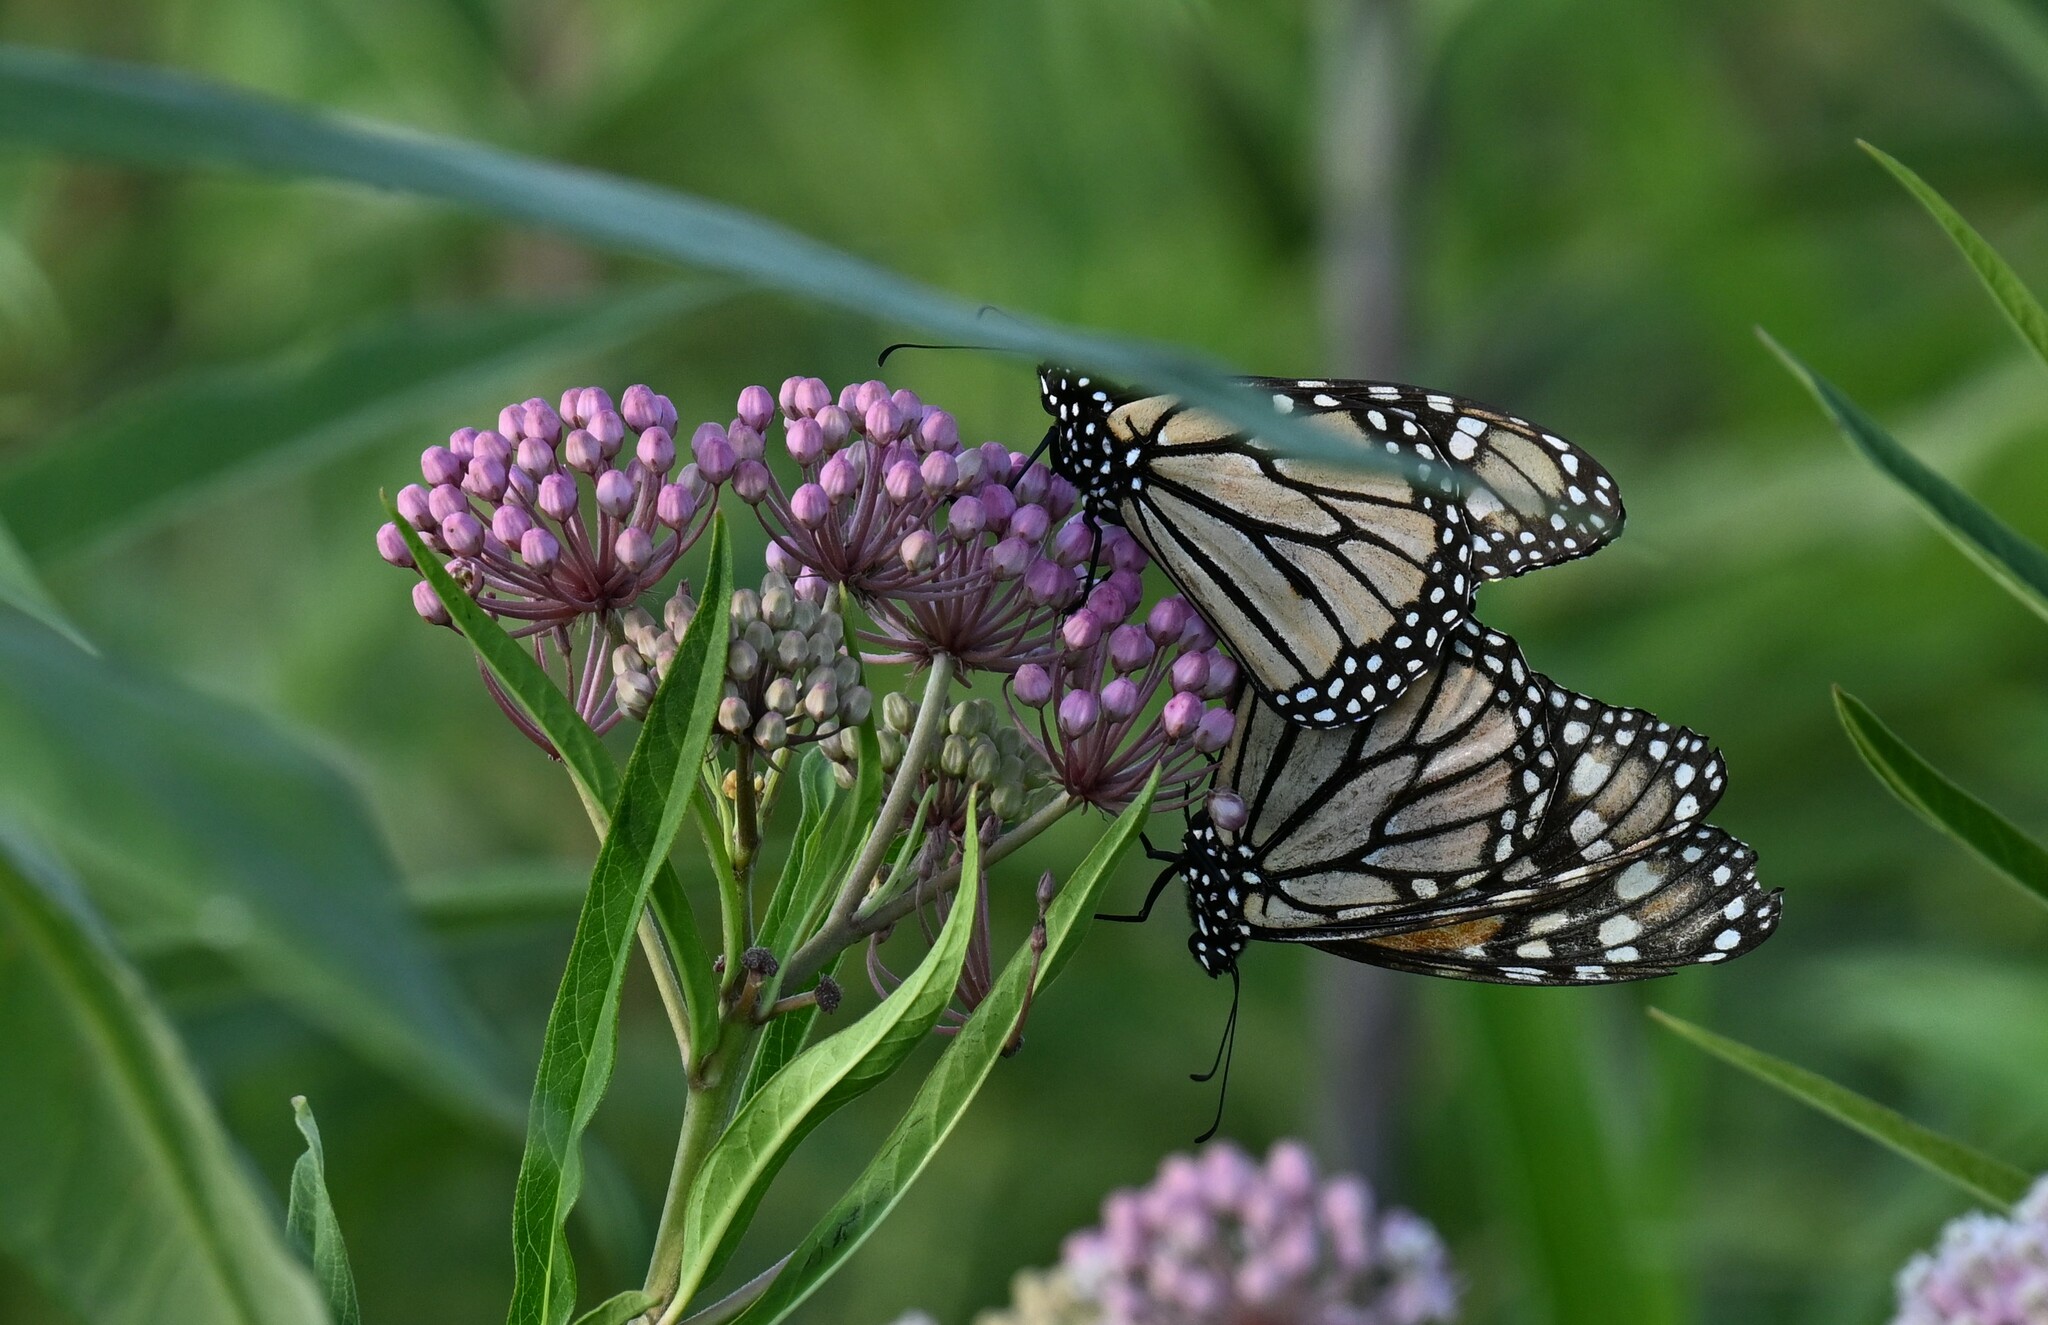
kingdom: Animalia
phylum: Arthropoda
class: Insecta
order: Lepidoptera
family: Nymphalidae
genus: Danaus
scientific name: Danaus plexippus
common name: Monarch
